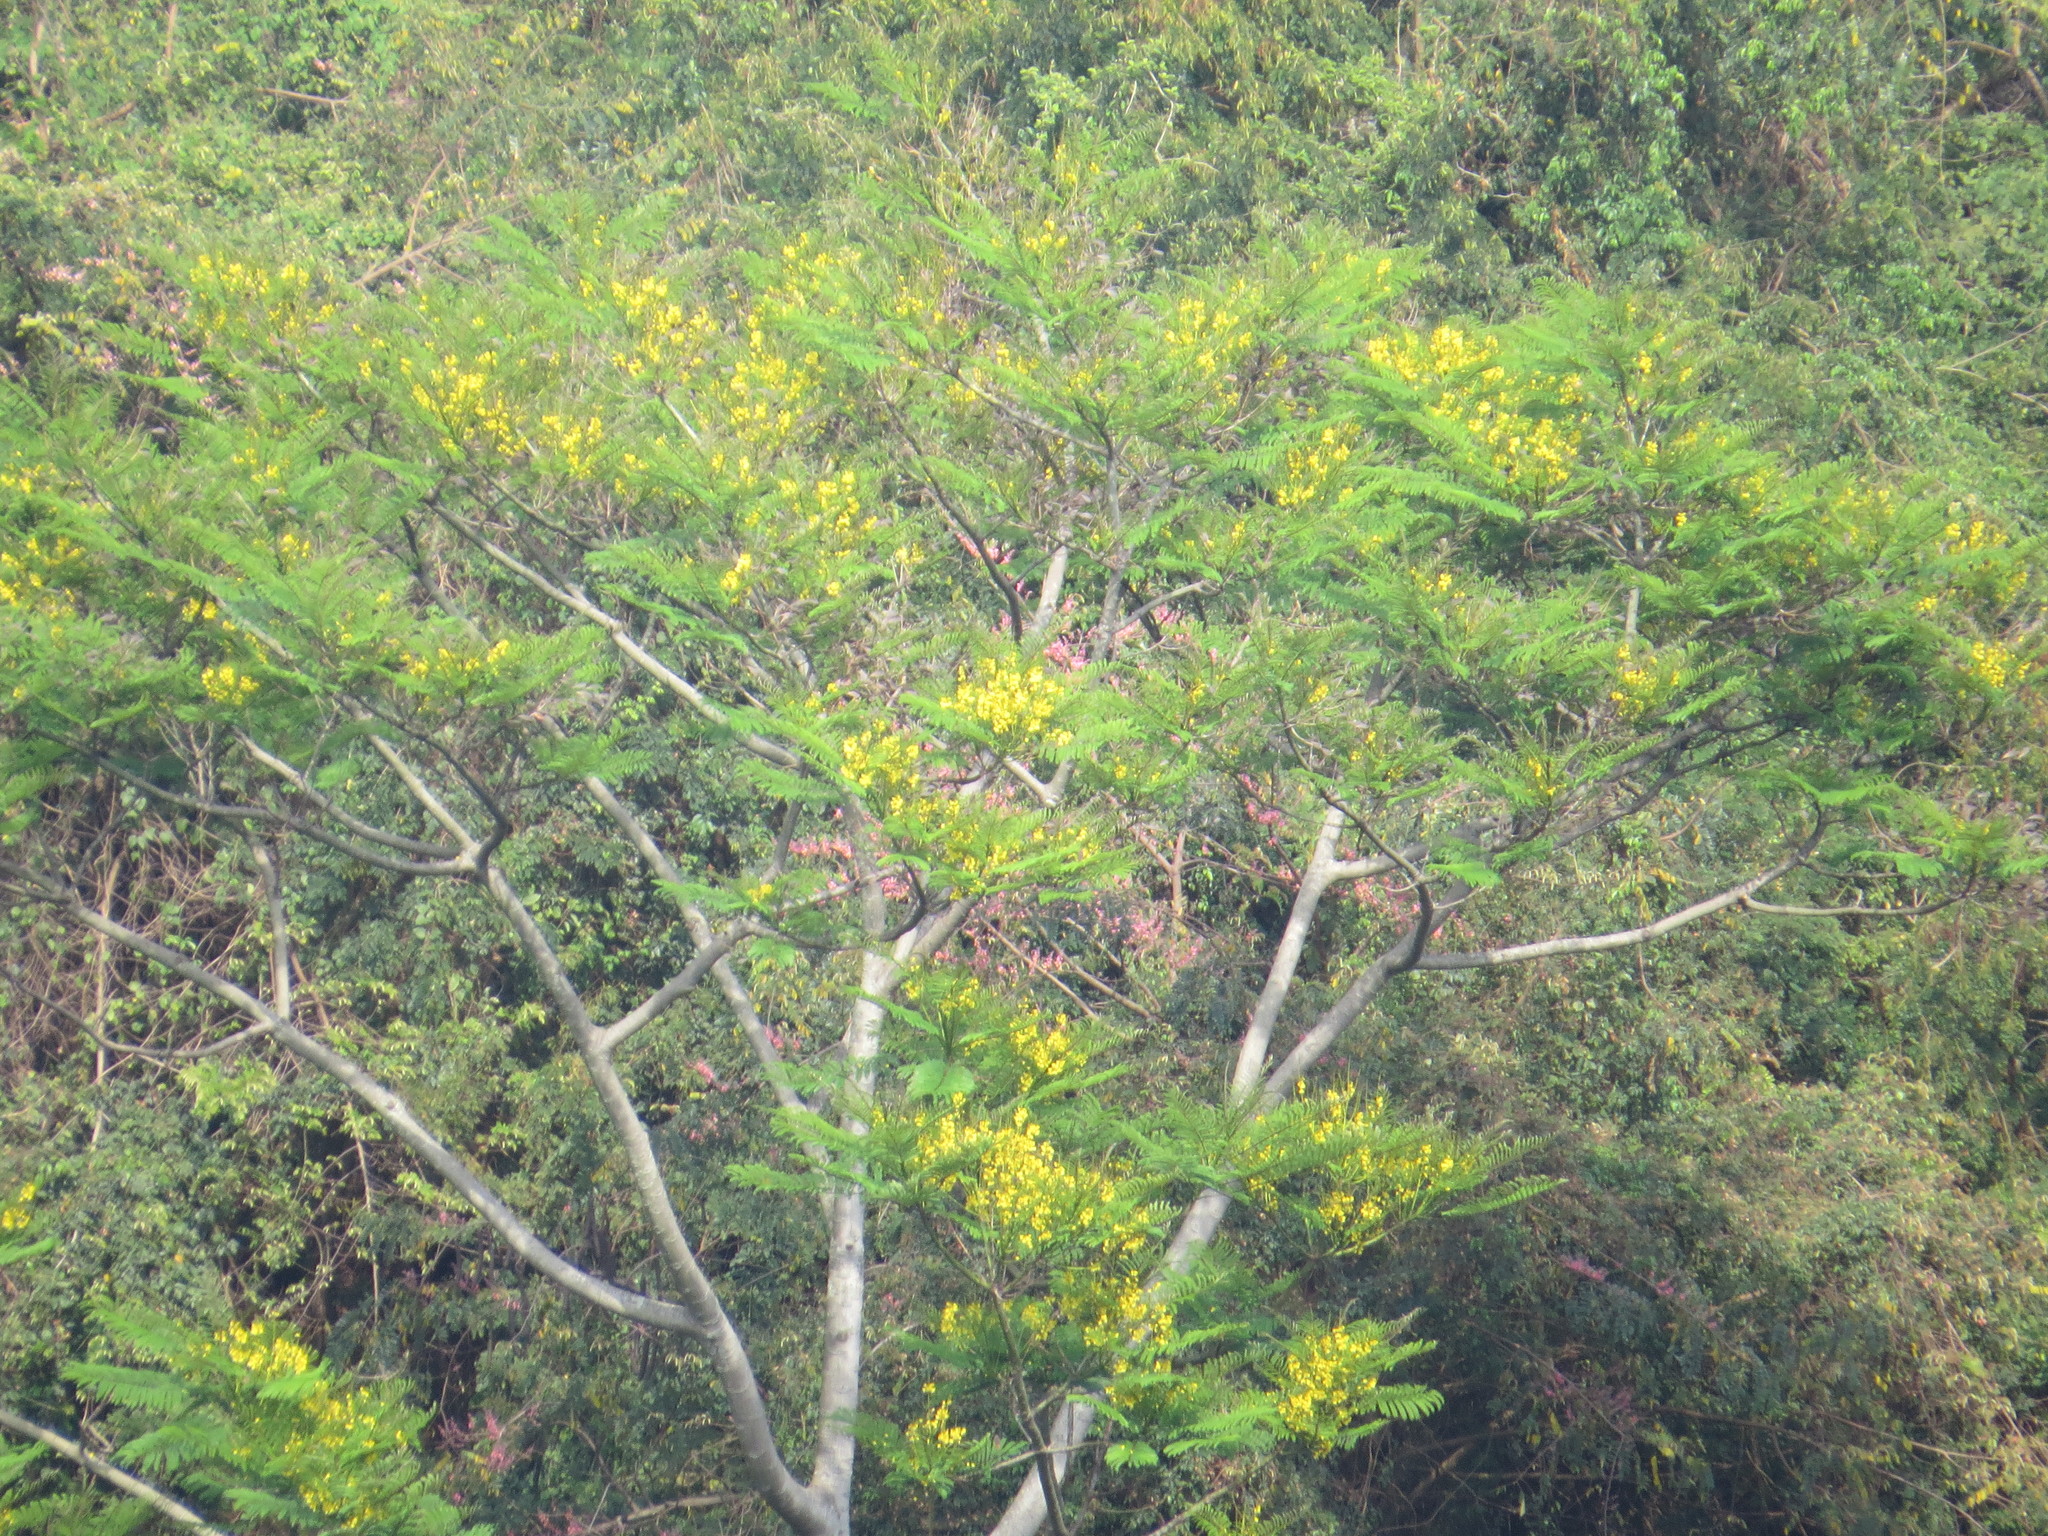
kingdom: Plantae
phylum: Tracheophyta
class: Magnoliopsida
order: Fabales
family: Fabaceae
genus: Schizolobium
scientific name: Schizolobium parahyba
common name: Brazilian firetree
